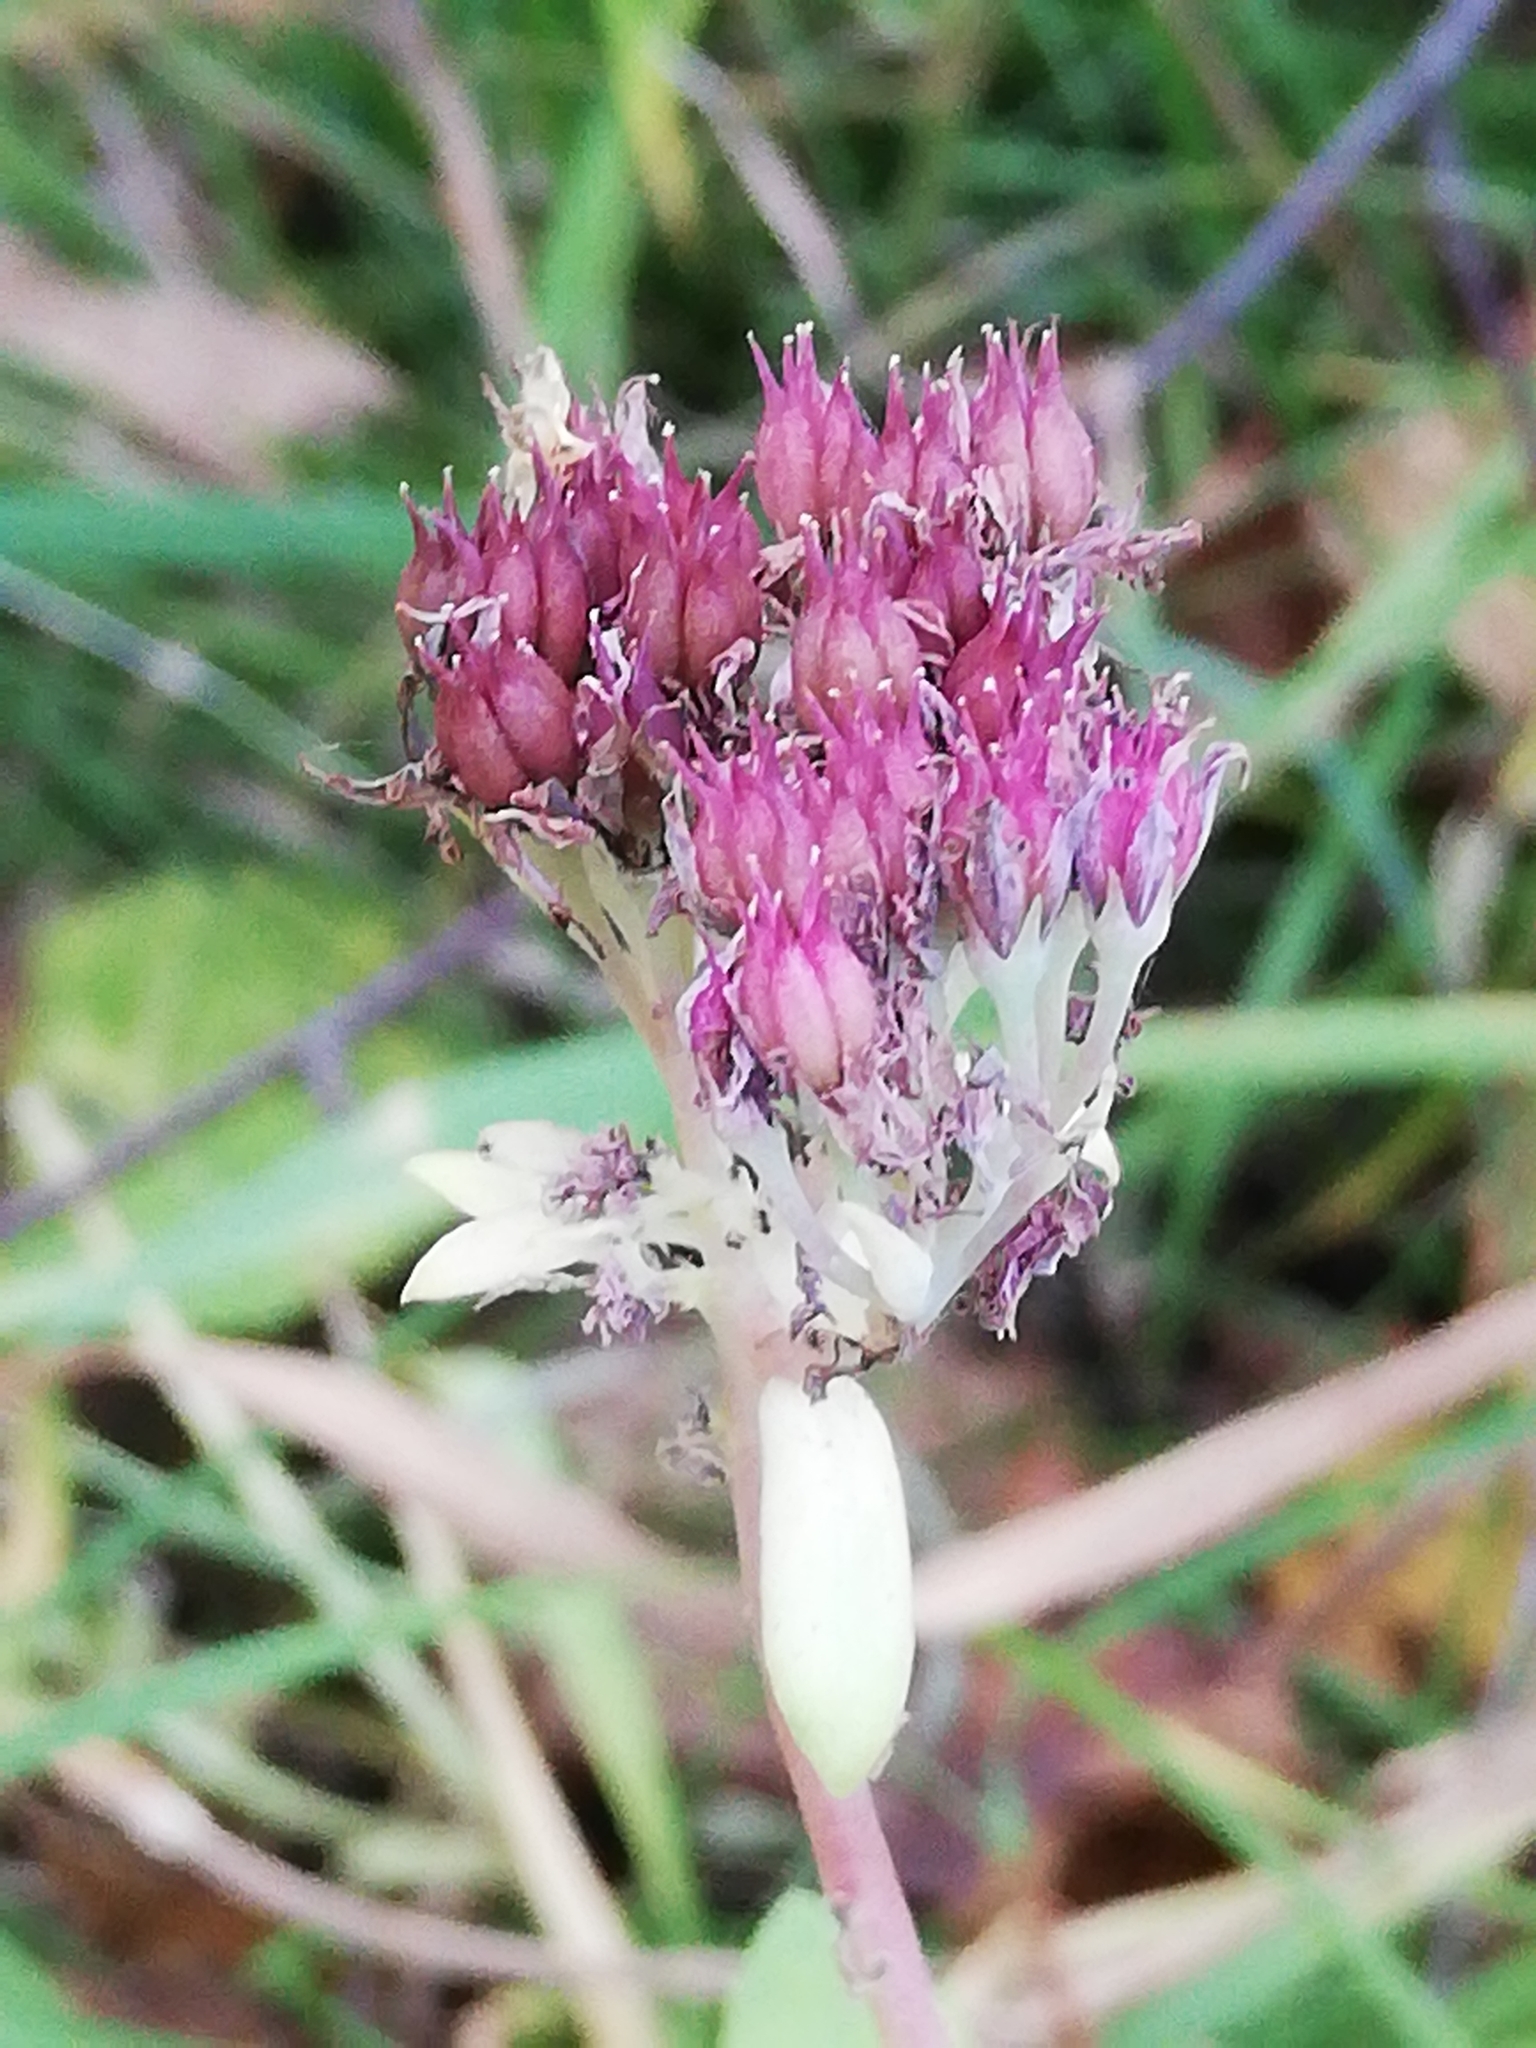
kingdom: Plantae
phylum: Tracheophyta
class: Magnoliopsida
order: Saxifragales
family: Crassulaceae
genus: Hylotelephium
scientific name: Hylotelephium telephium
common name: Live-forever
